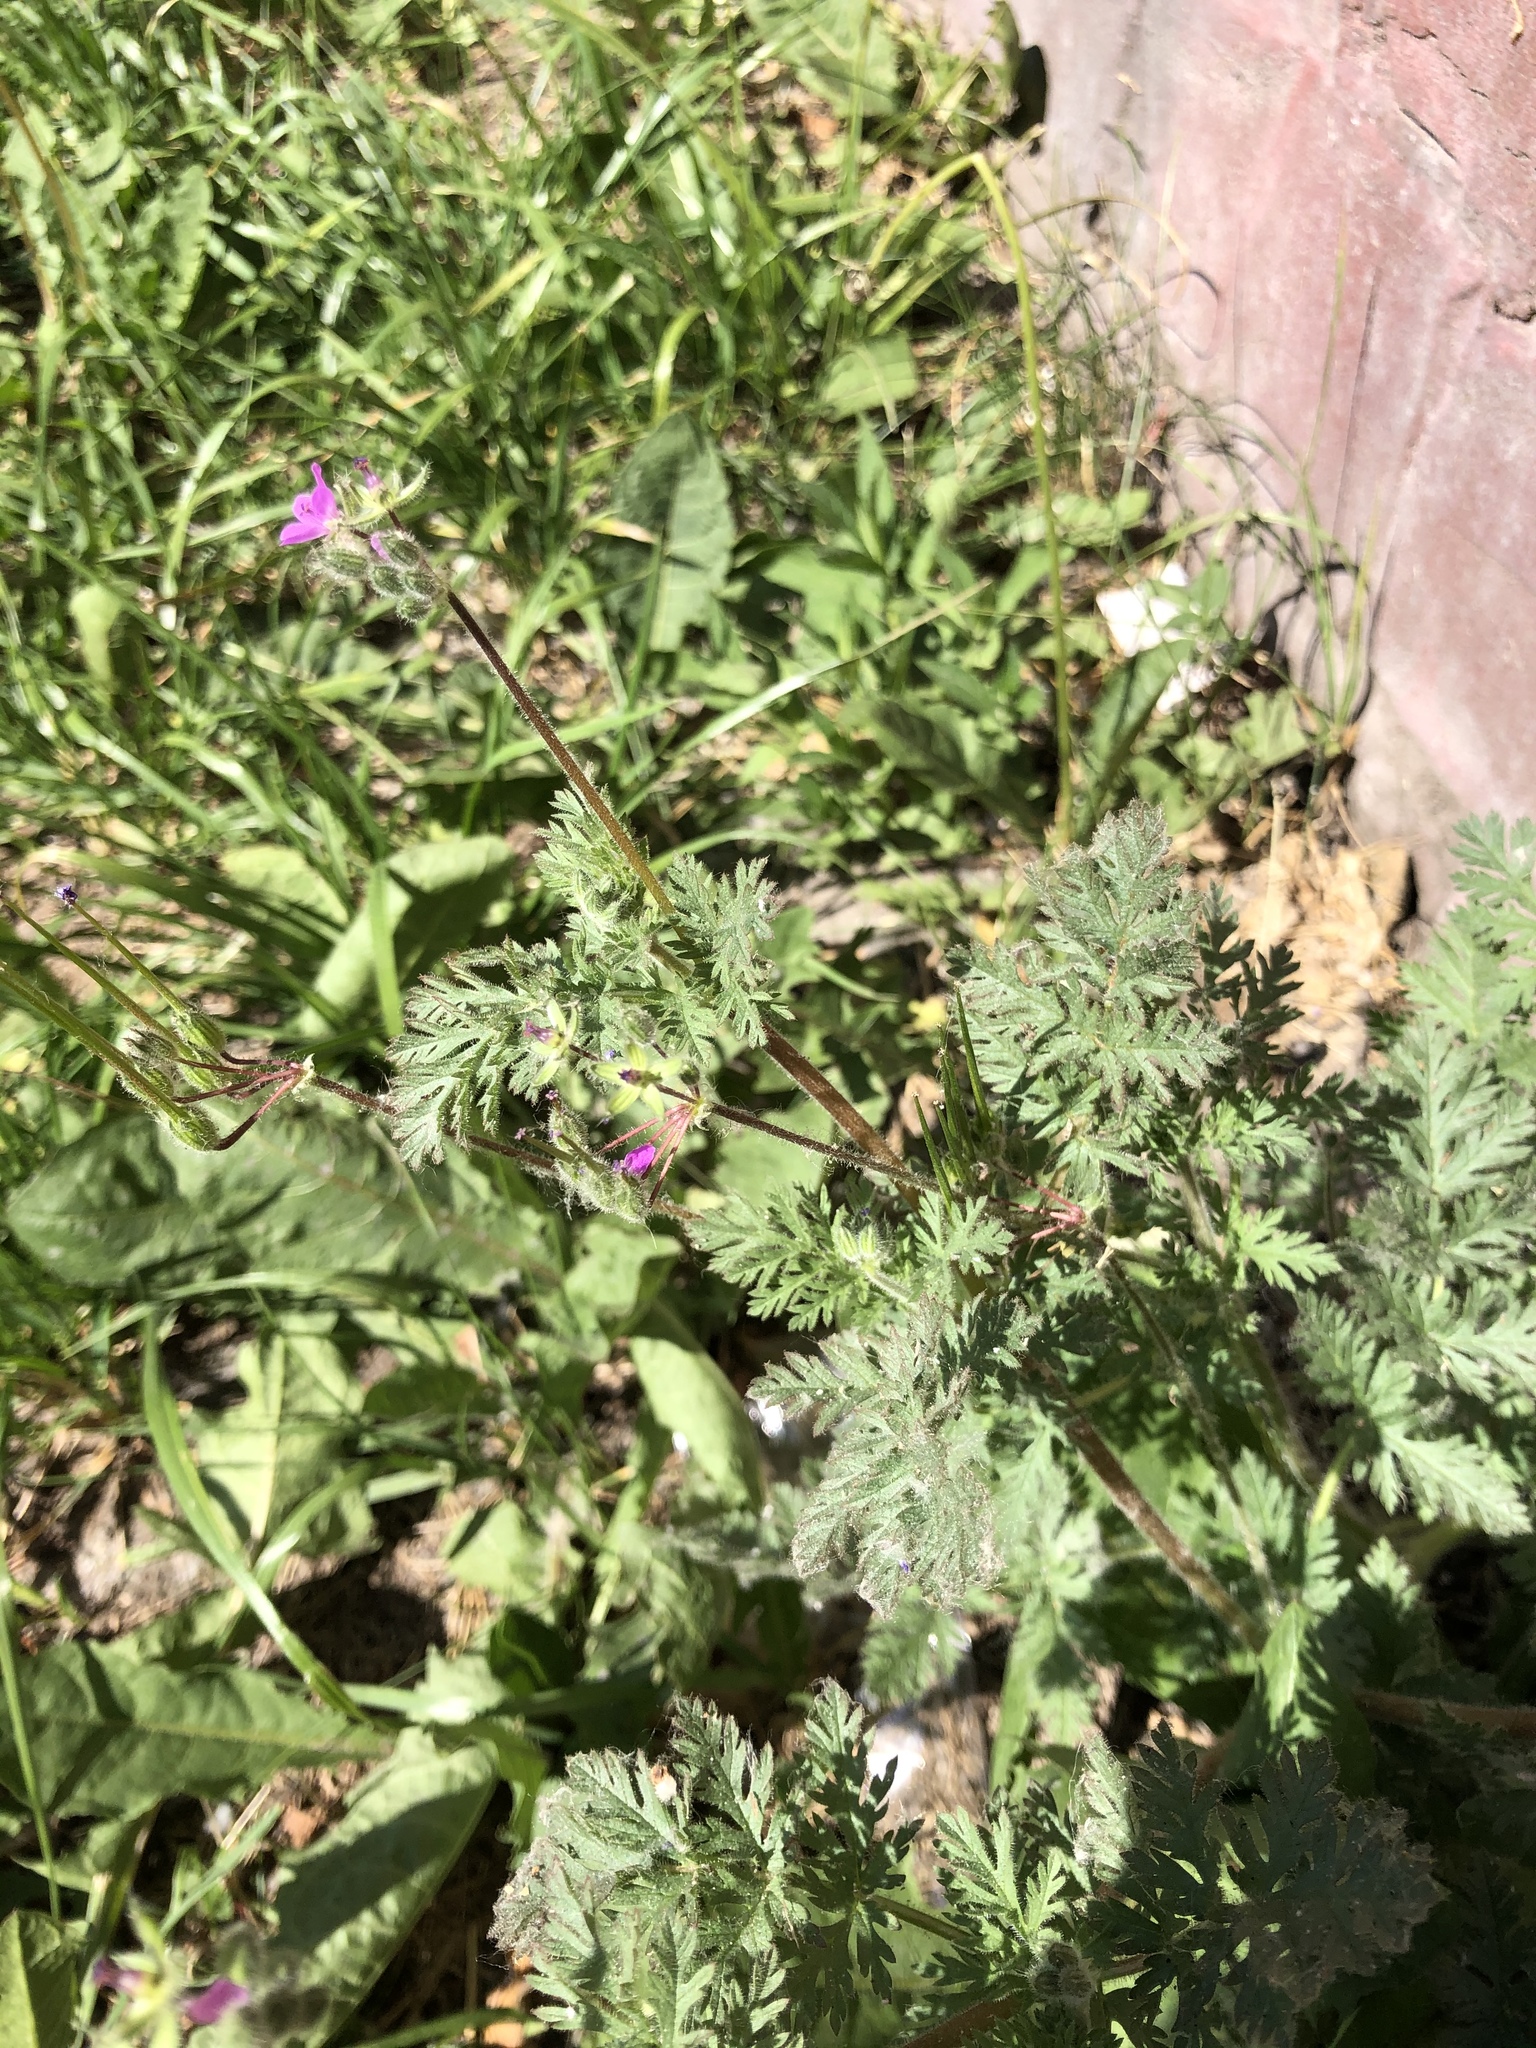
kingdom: Plantae
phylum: Tracheophyta
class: Magnoliopsida
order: Geraniales
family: Geraniaceae
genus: Erodium
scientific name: Erodium cicutarium
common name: Common stork's-bill
